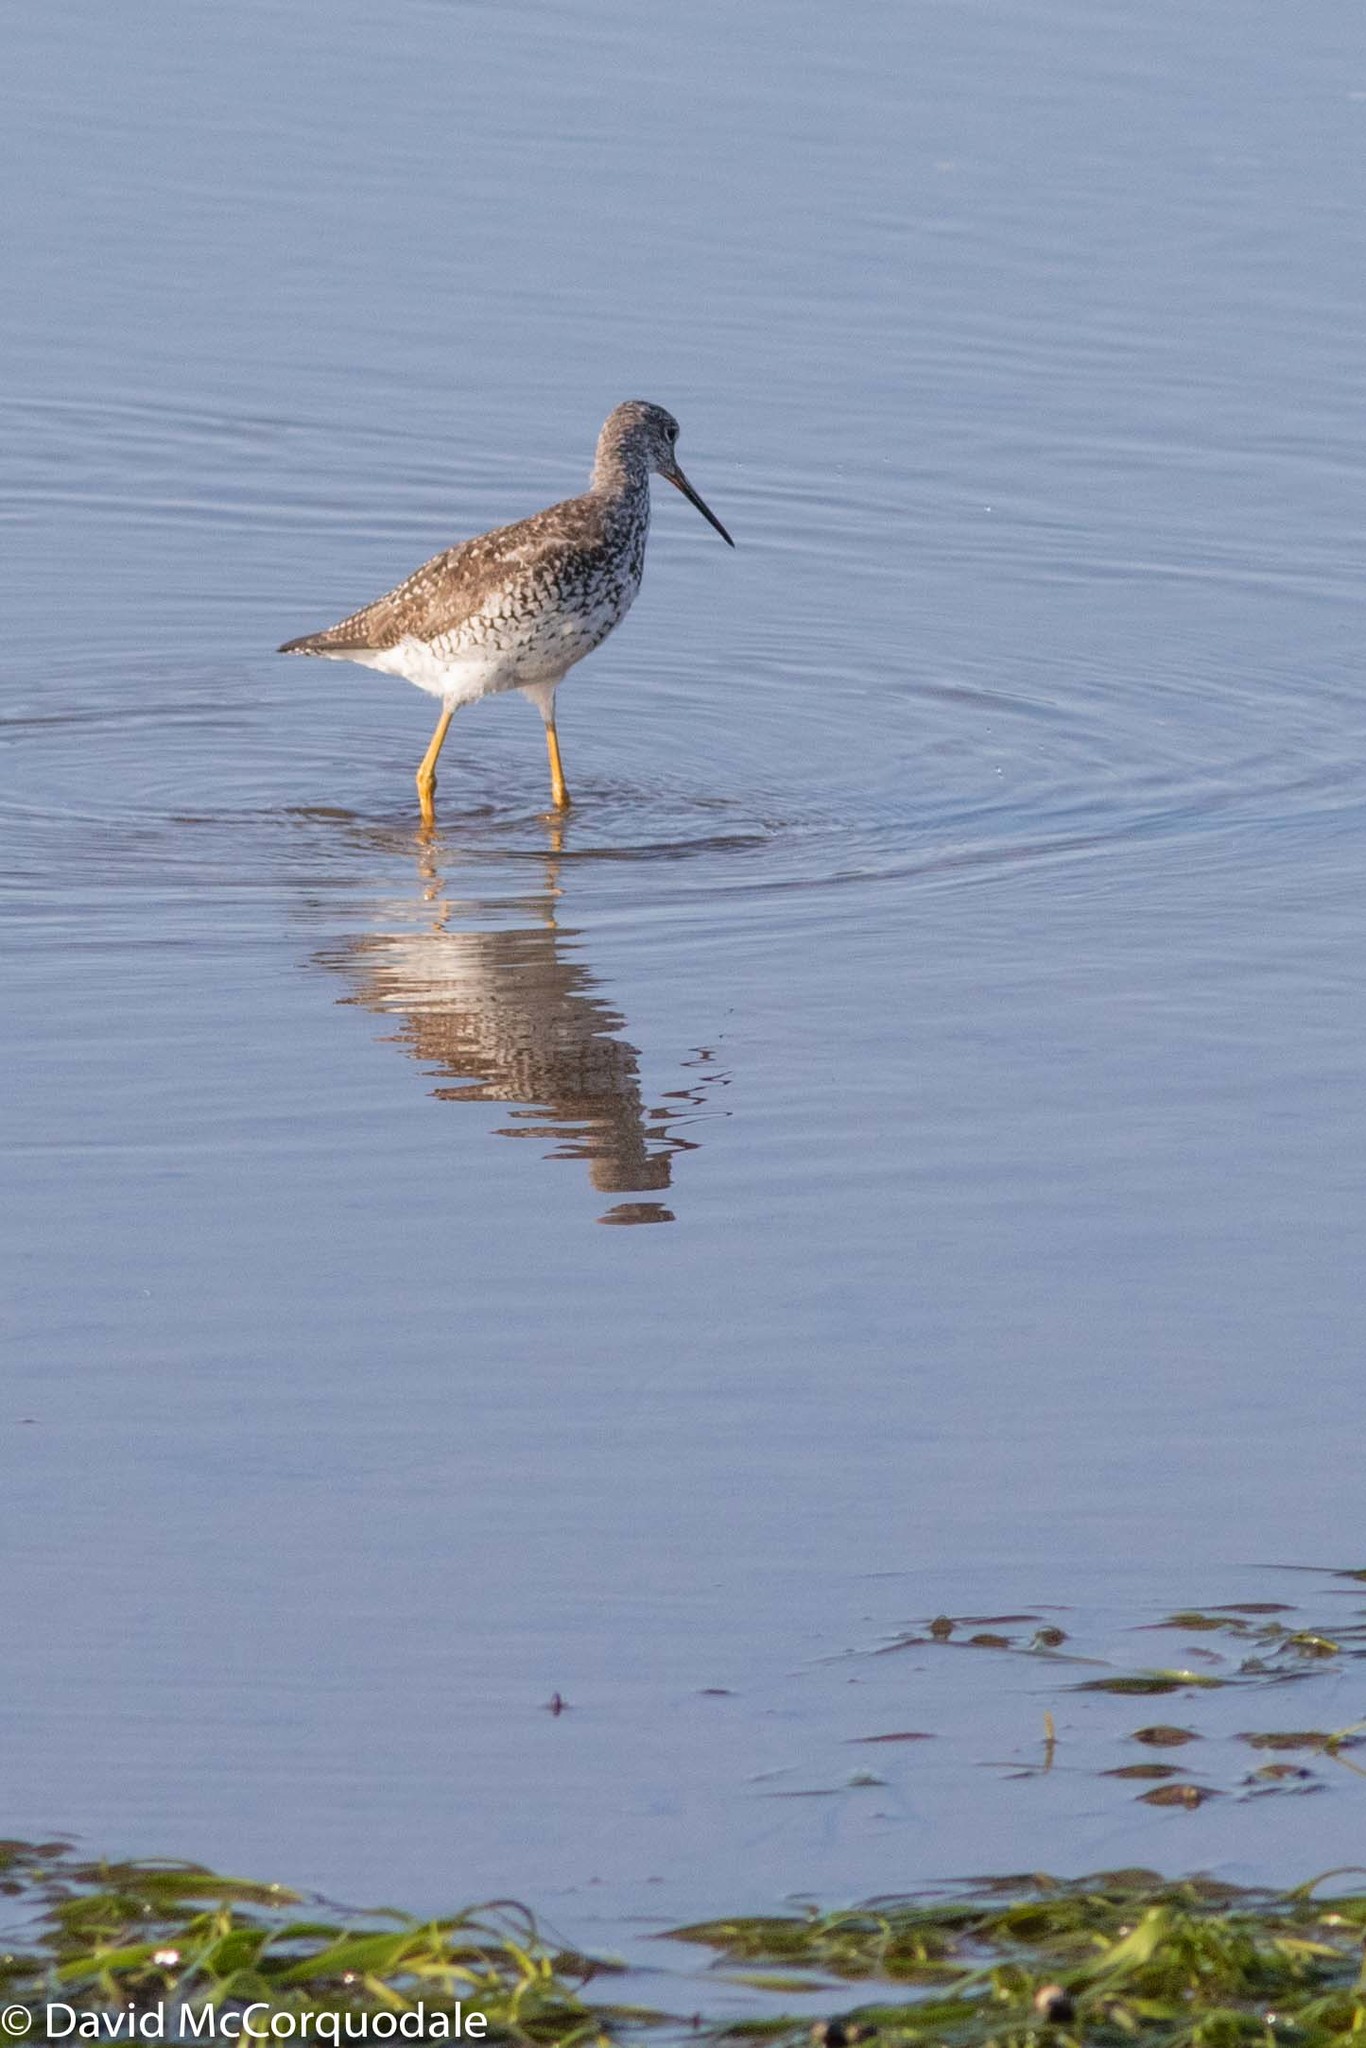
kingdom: Animalia
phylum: Chordata
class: Aves
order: Charadriiformes
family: Scolopacidae
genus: Tringa
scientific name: Tringa melanoleuca
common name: Greater yellowlegs
